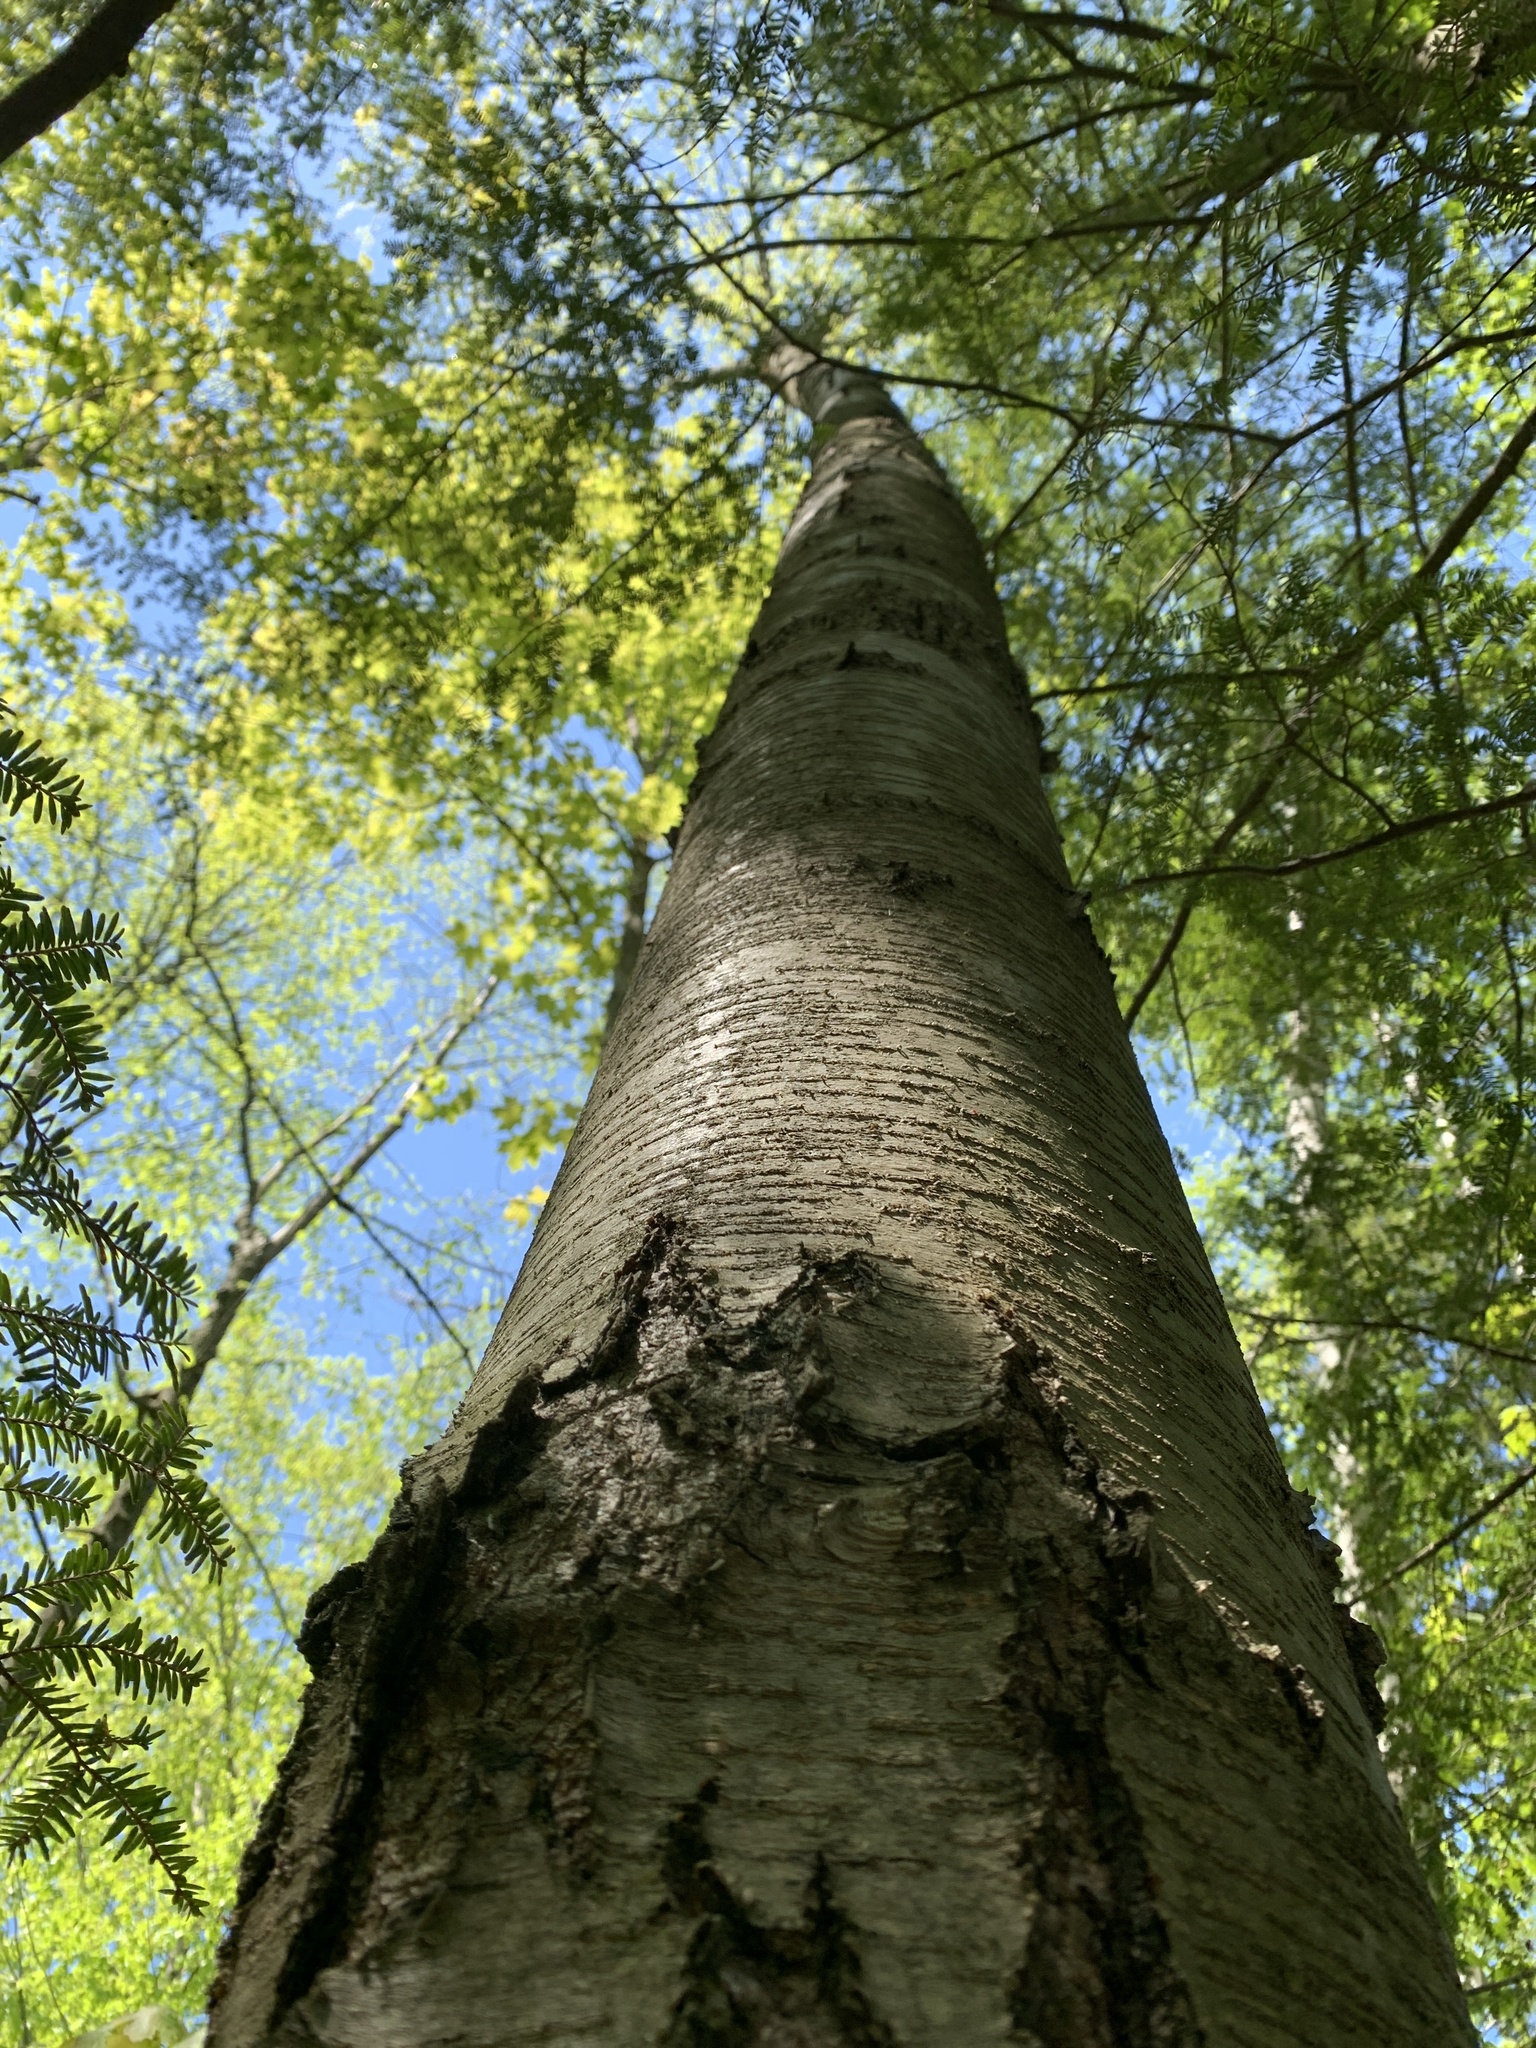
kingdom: Plantae
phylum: Tracheophyta
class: Magnoliopsida
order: Fagales
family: Betulaceae
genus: Betula
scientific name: Betula lenta
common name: Black birch
